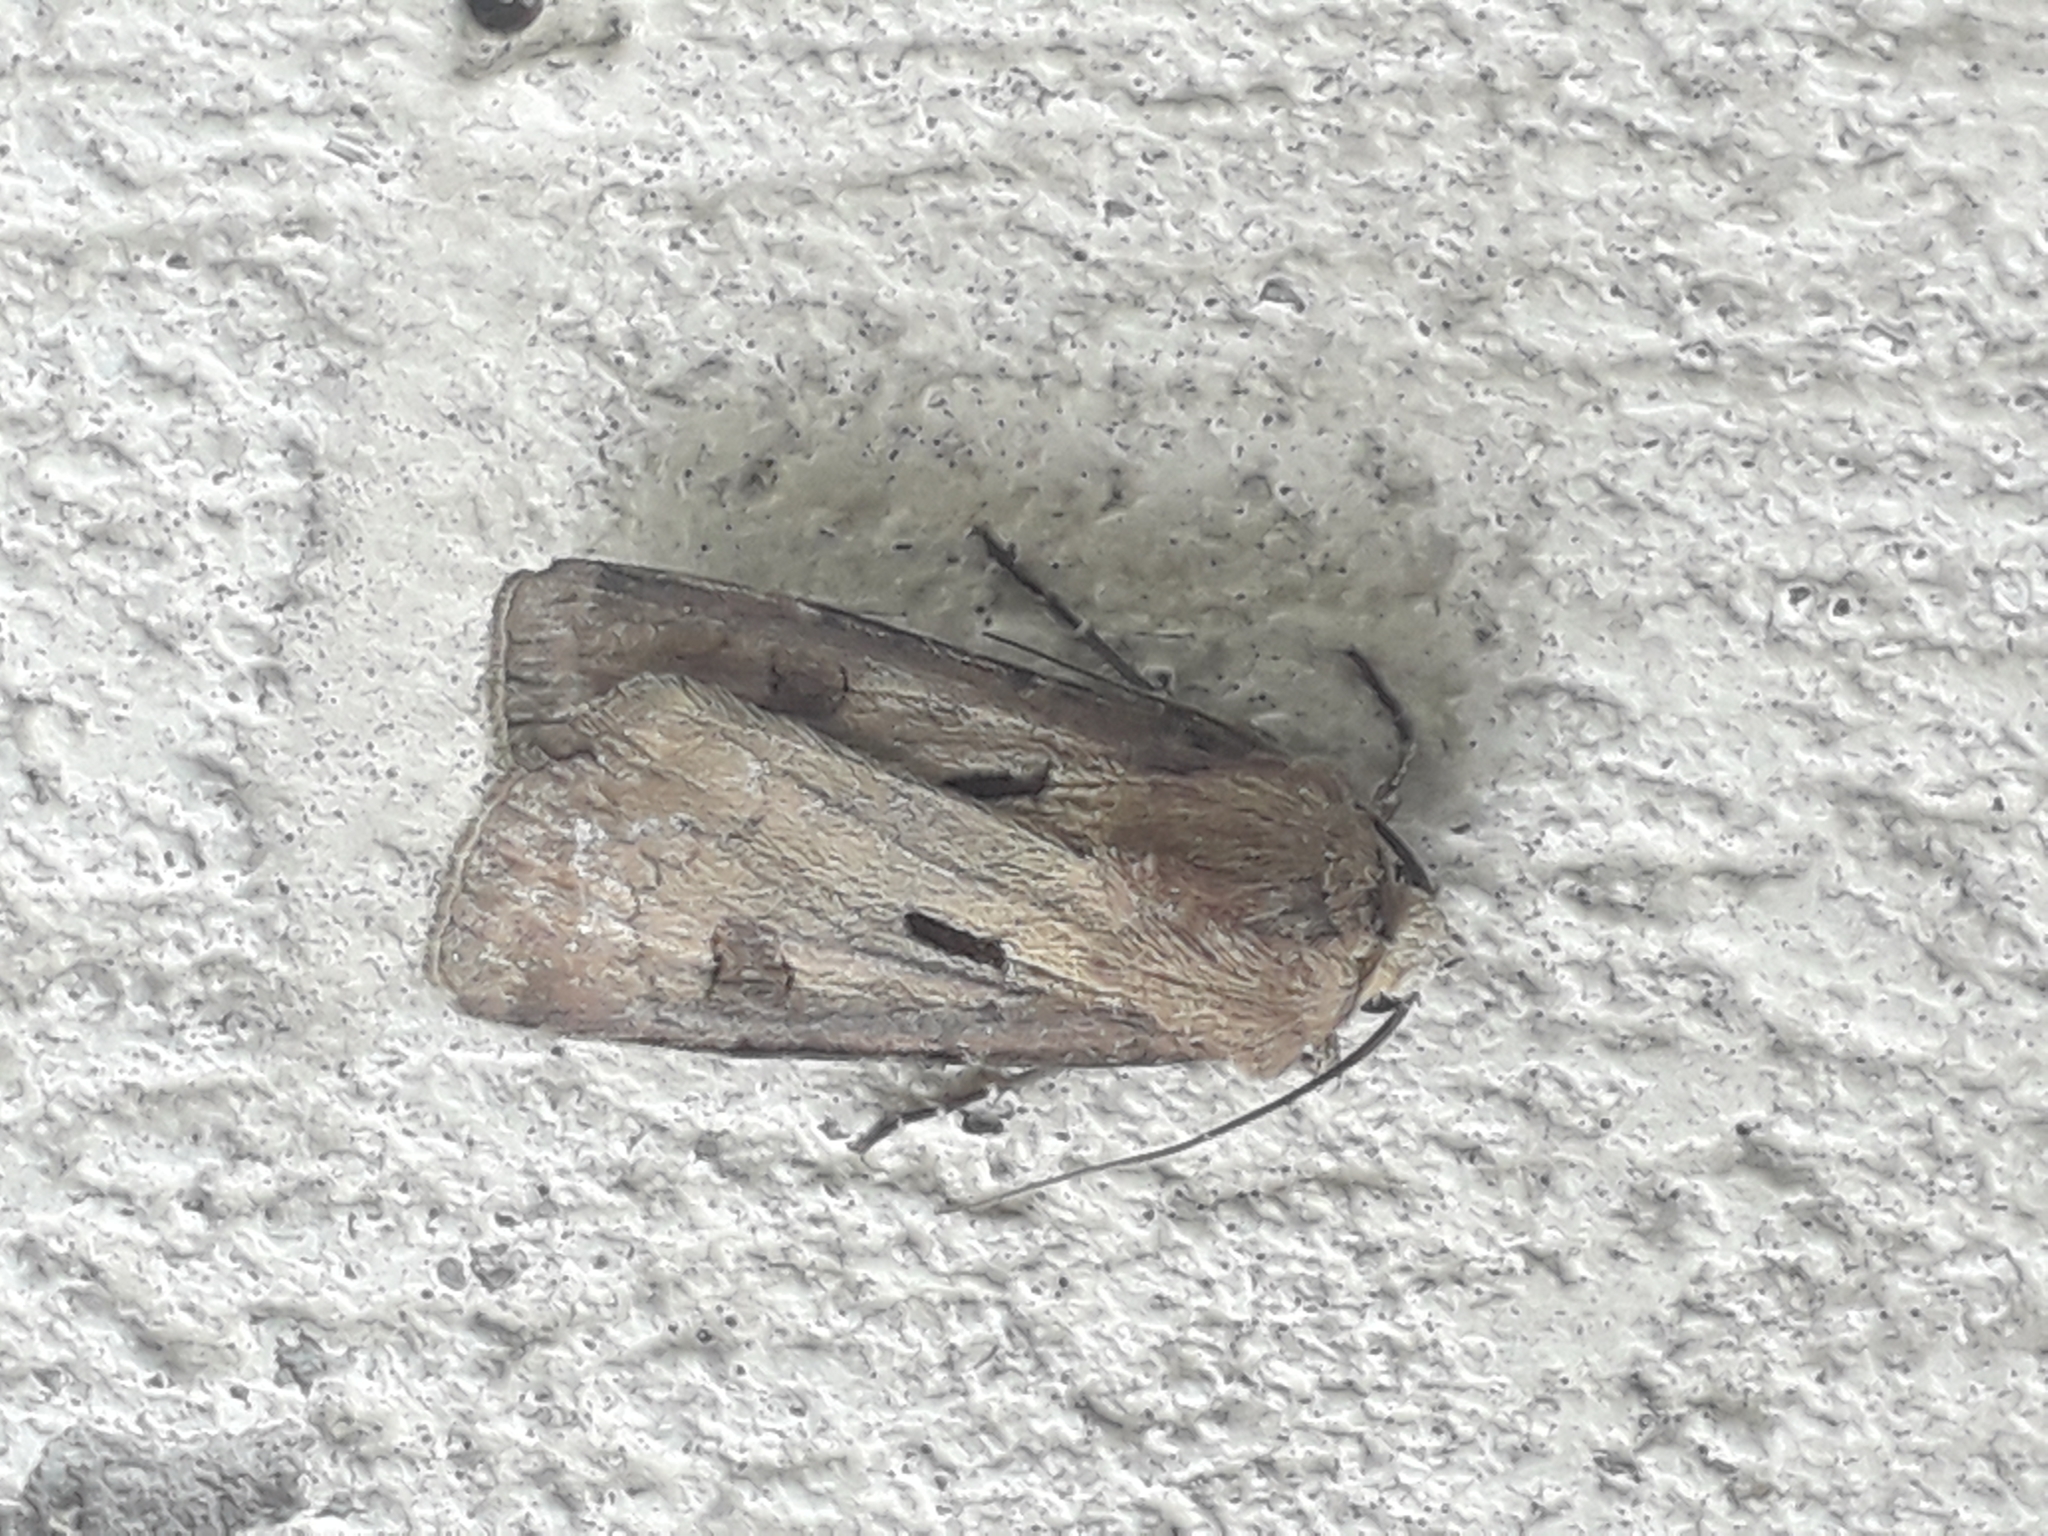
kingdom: Animalia
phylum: Arthropoda
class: Insecta
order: Lepidoptera
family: Noctuidae
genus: Agrotis
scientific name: Agrotis exclamationis
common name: Heart and dart
